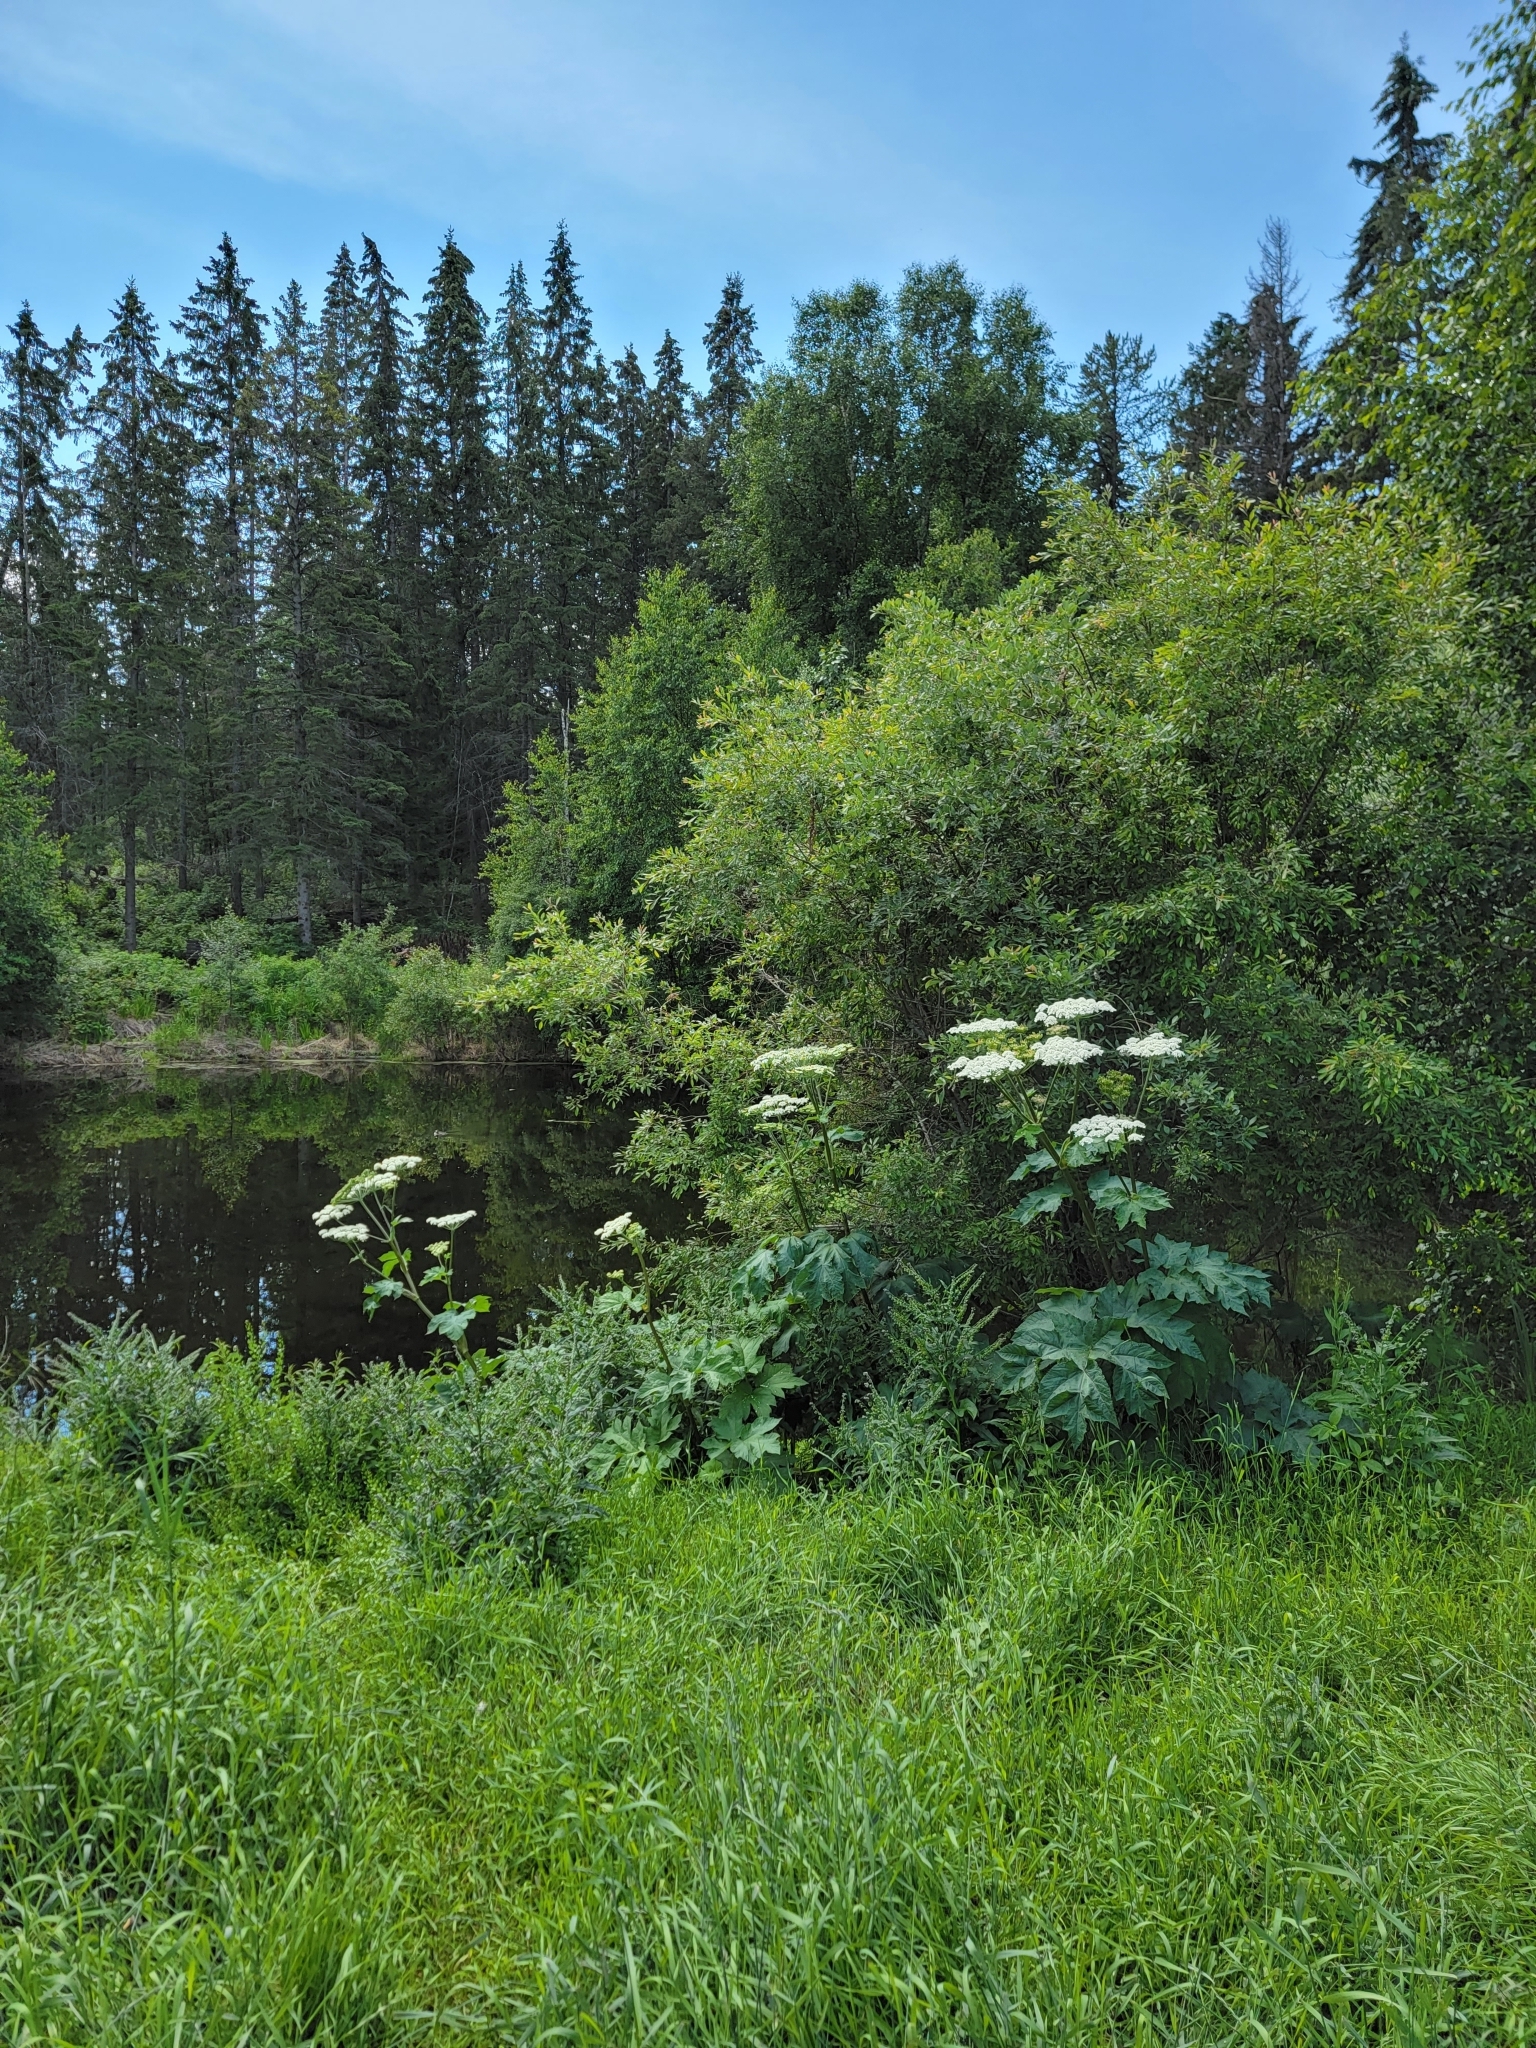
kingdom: Plantae
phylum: Tracheophyta
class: Magnoliopsida
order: Apiales
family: Apiaceae
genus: Heracleum
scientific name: Heracleum maximum
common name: American cow parsnip
